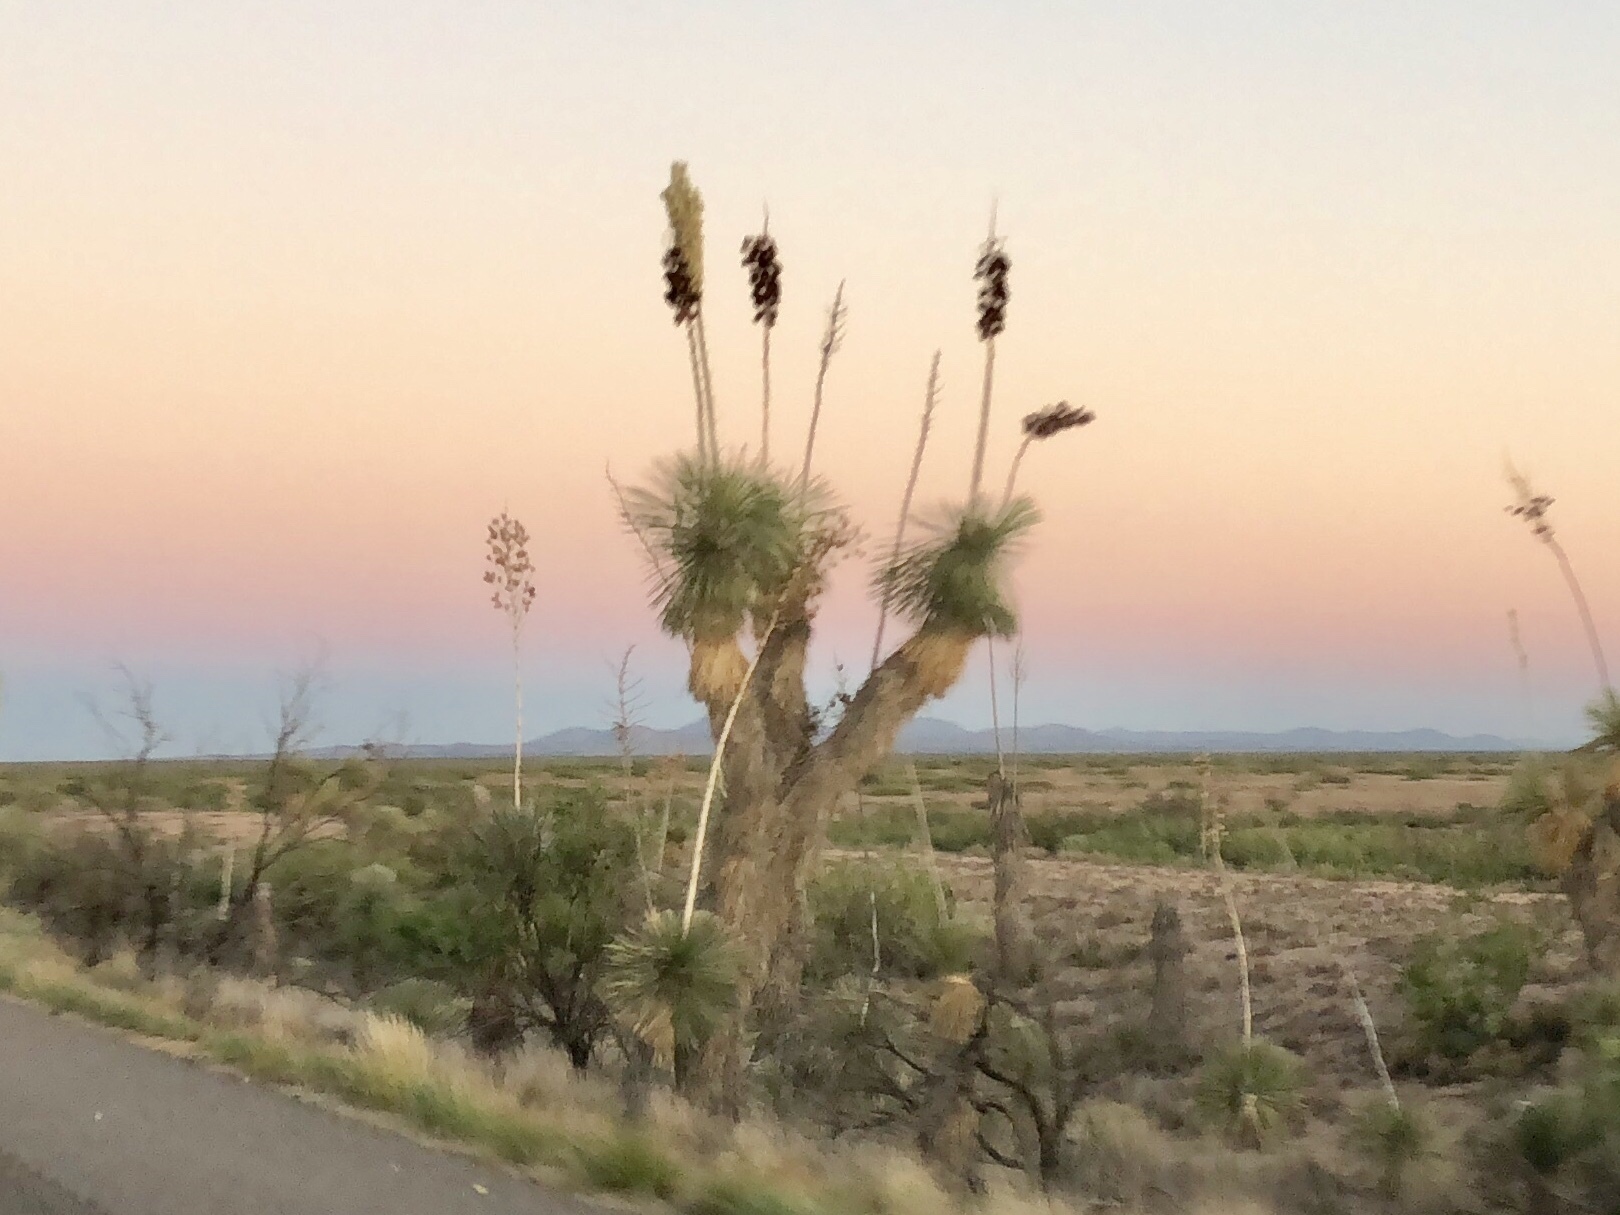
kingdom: Plantae
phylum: Tracheophyta
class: Liliopsida
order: Asparagales
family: Asparagaceae
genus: Yucca
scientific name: Yucca elata
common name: Palmella
